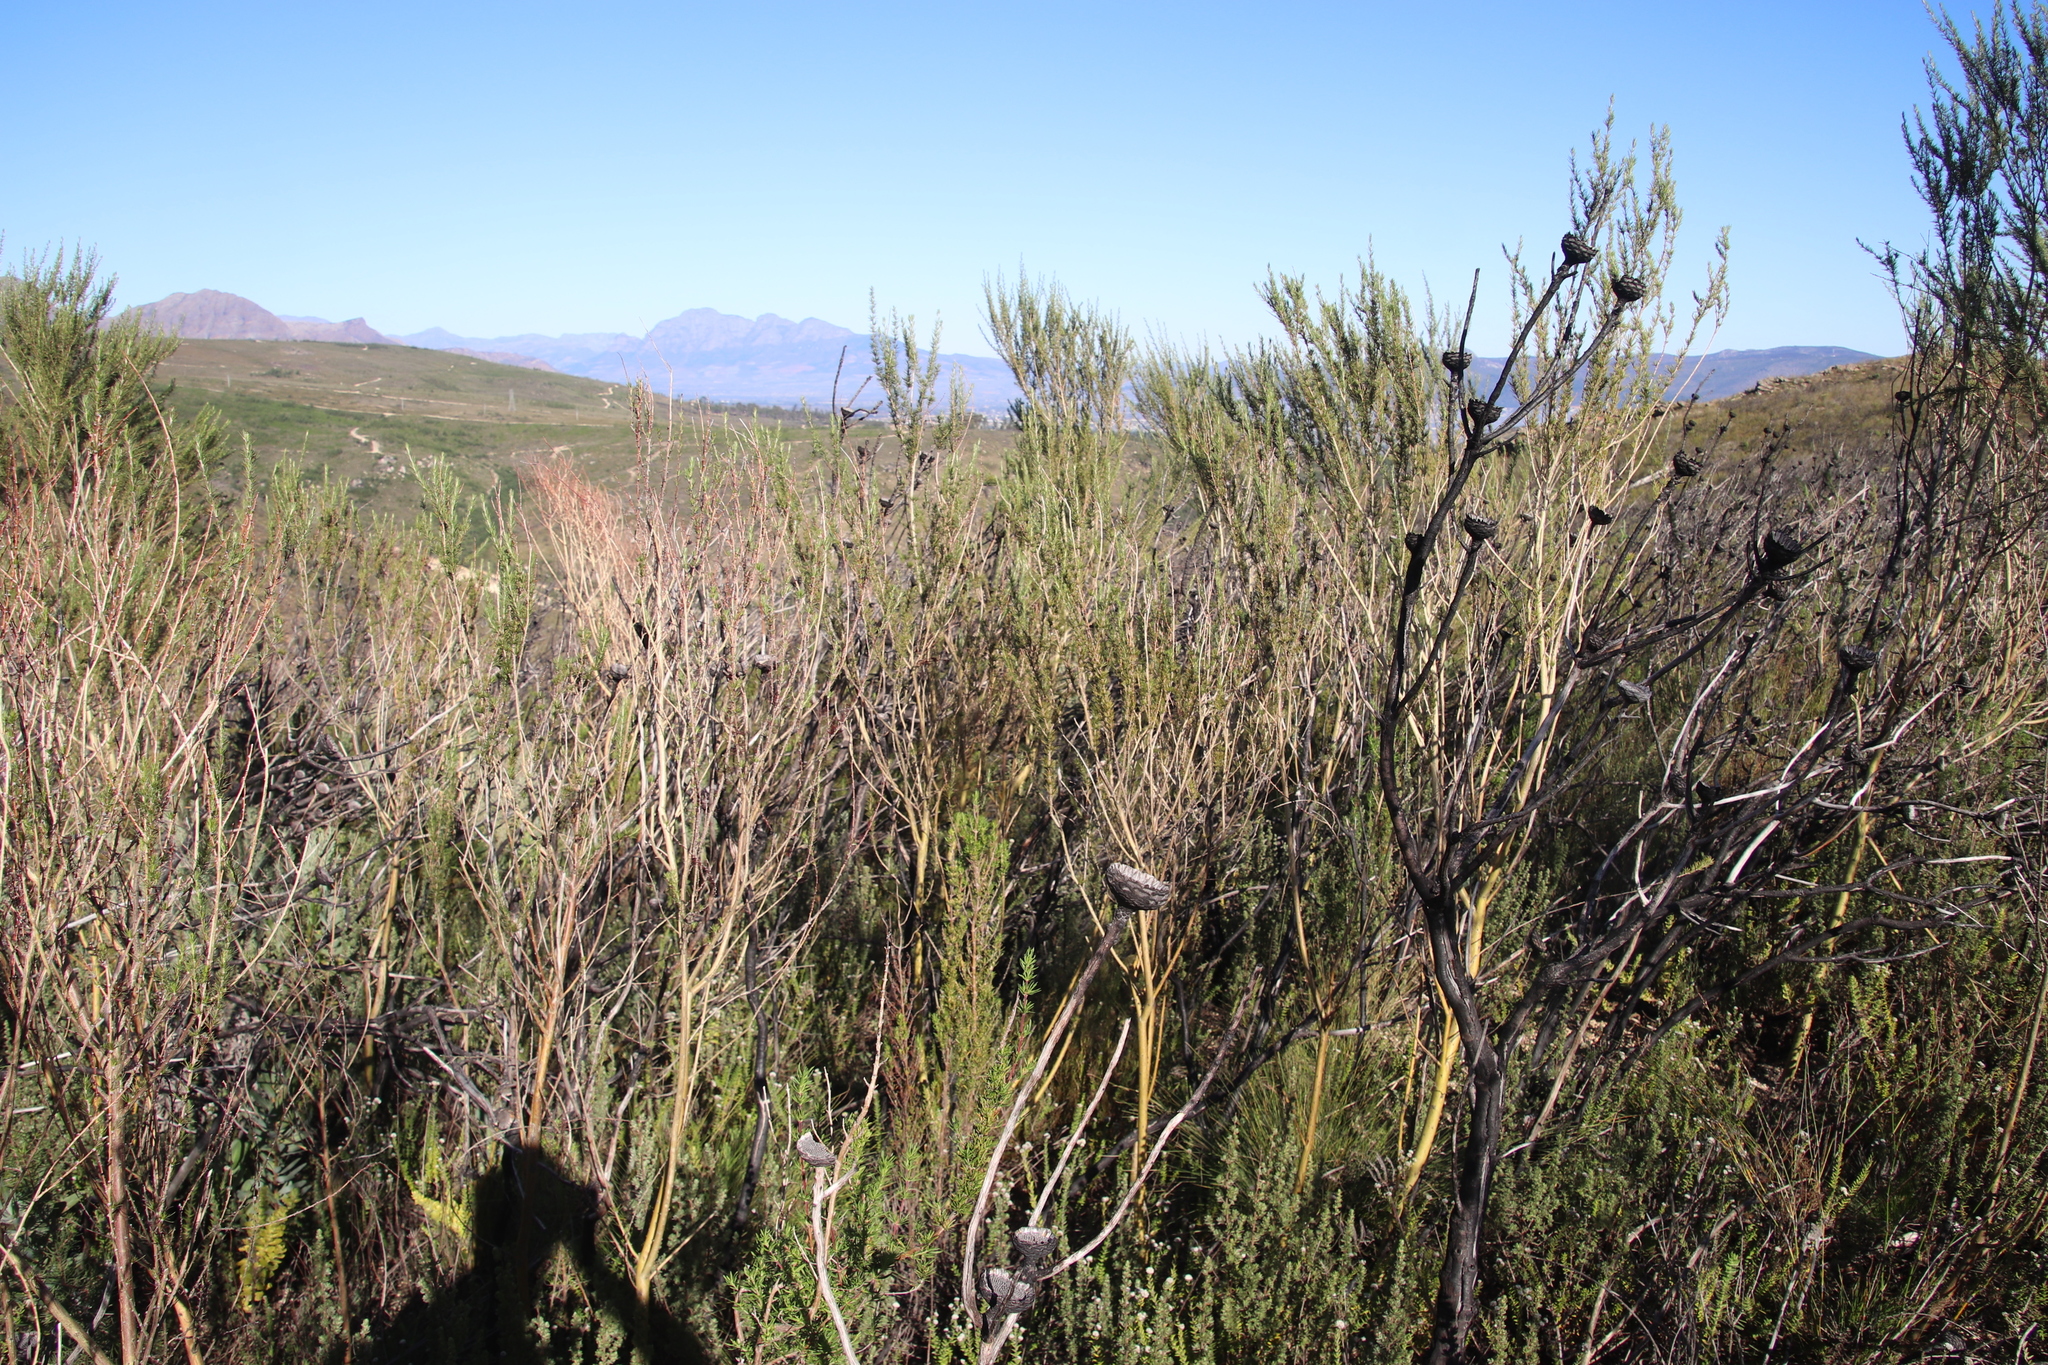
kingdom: Plantae
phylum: Tracheophyta
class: Magnoliopsida
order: Fabales
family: Fabaceae
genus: Aspalathus
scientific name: Aspalathus uniflora
